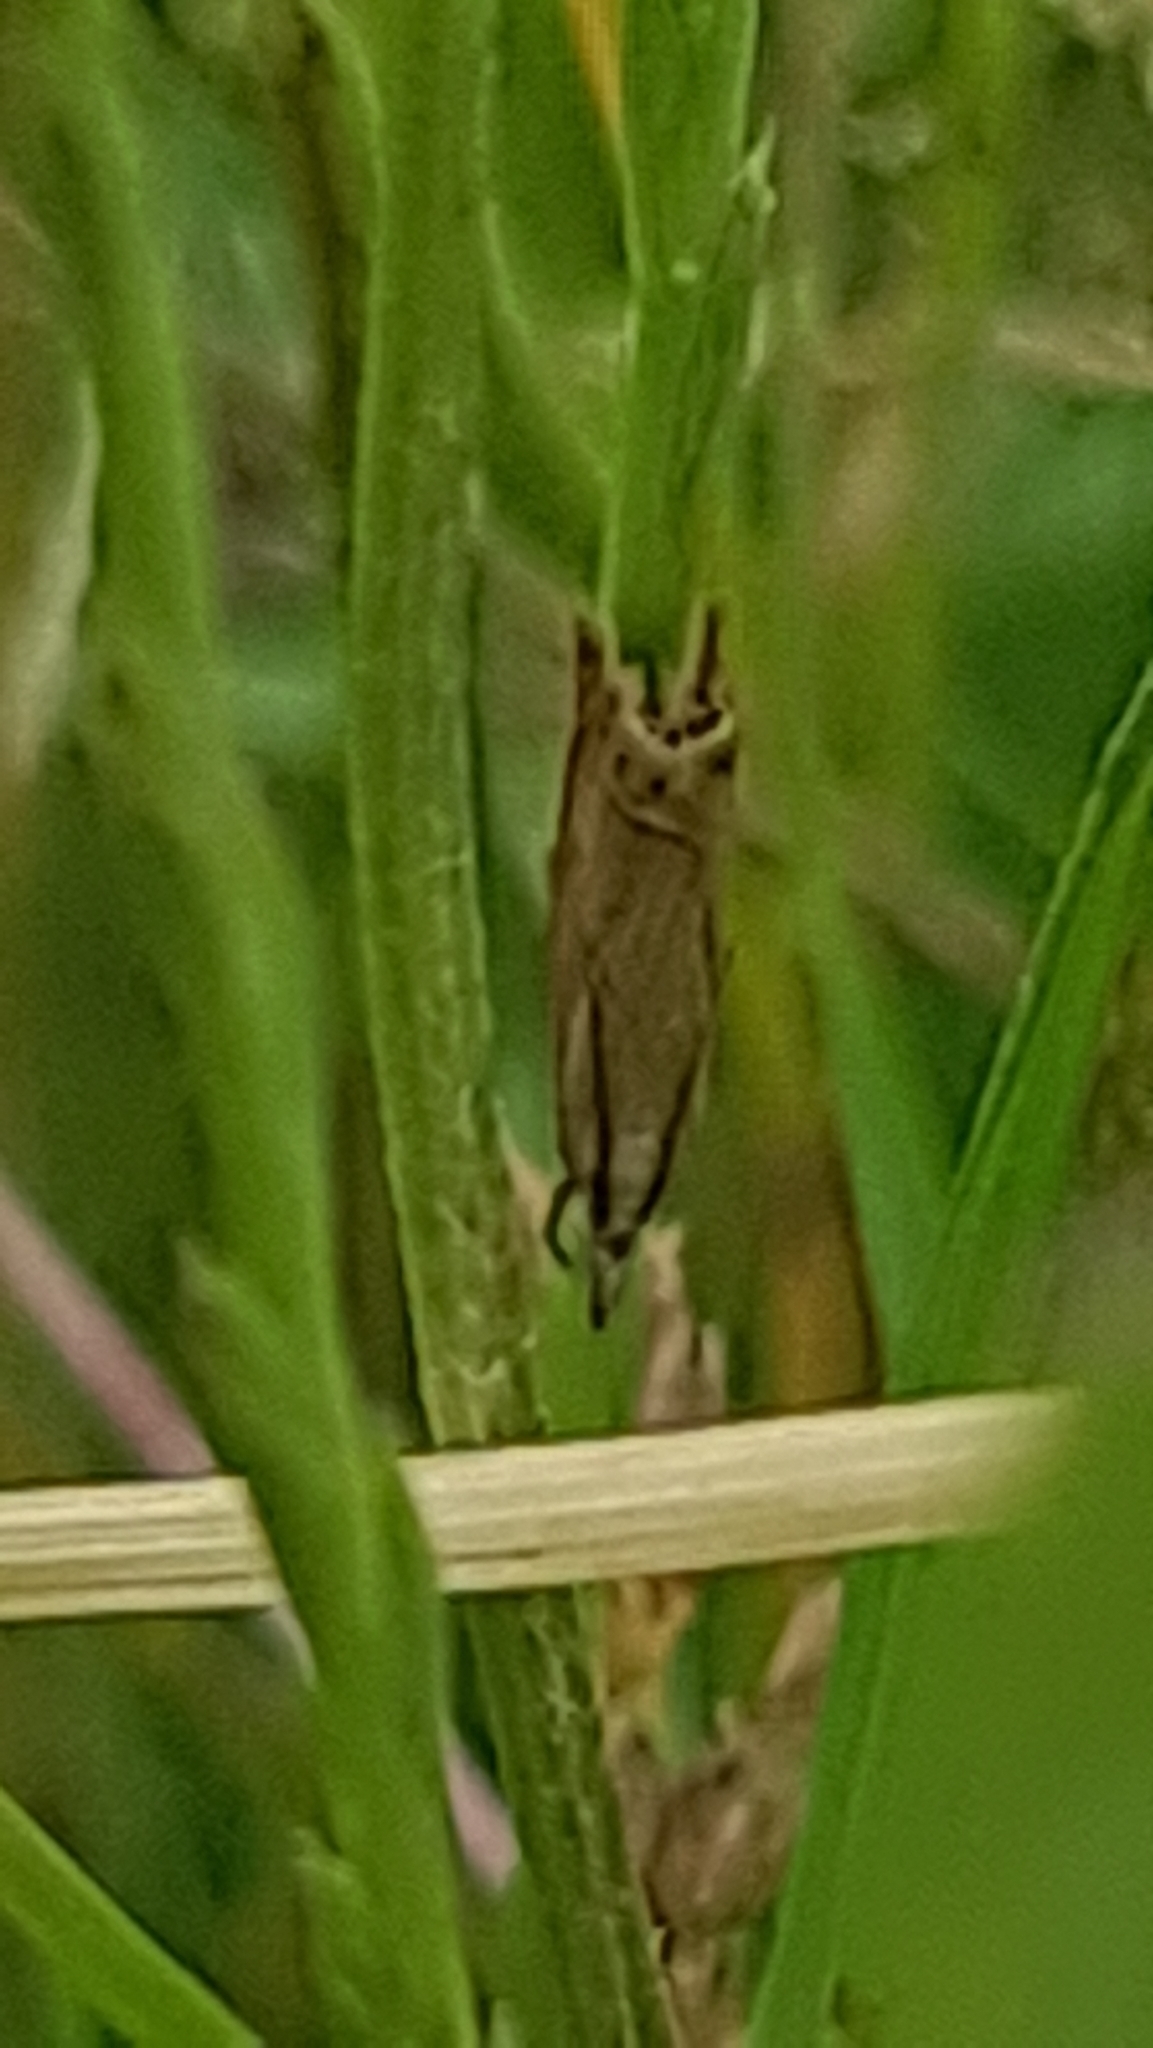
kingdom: Animalia
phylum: Arthropoda
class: Insecta
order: Lepidoptera
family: Crambidae
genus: Chrysoteuchia
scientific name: Chrysoteuchia culmella
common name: Garden grass-veneer
